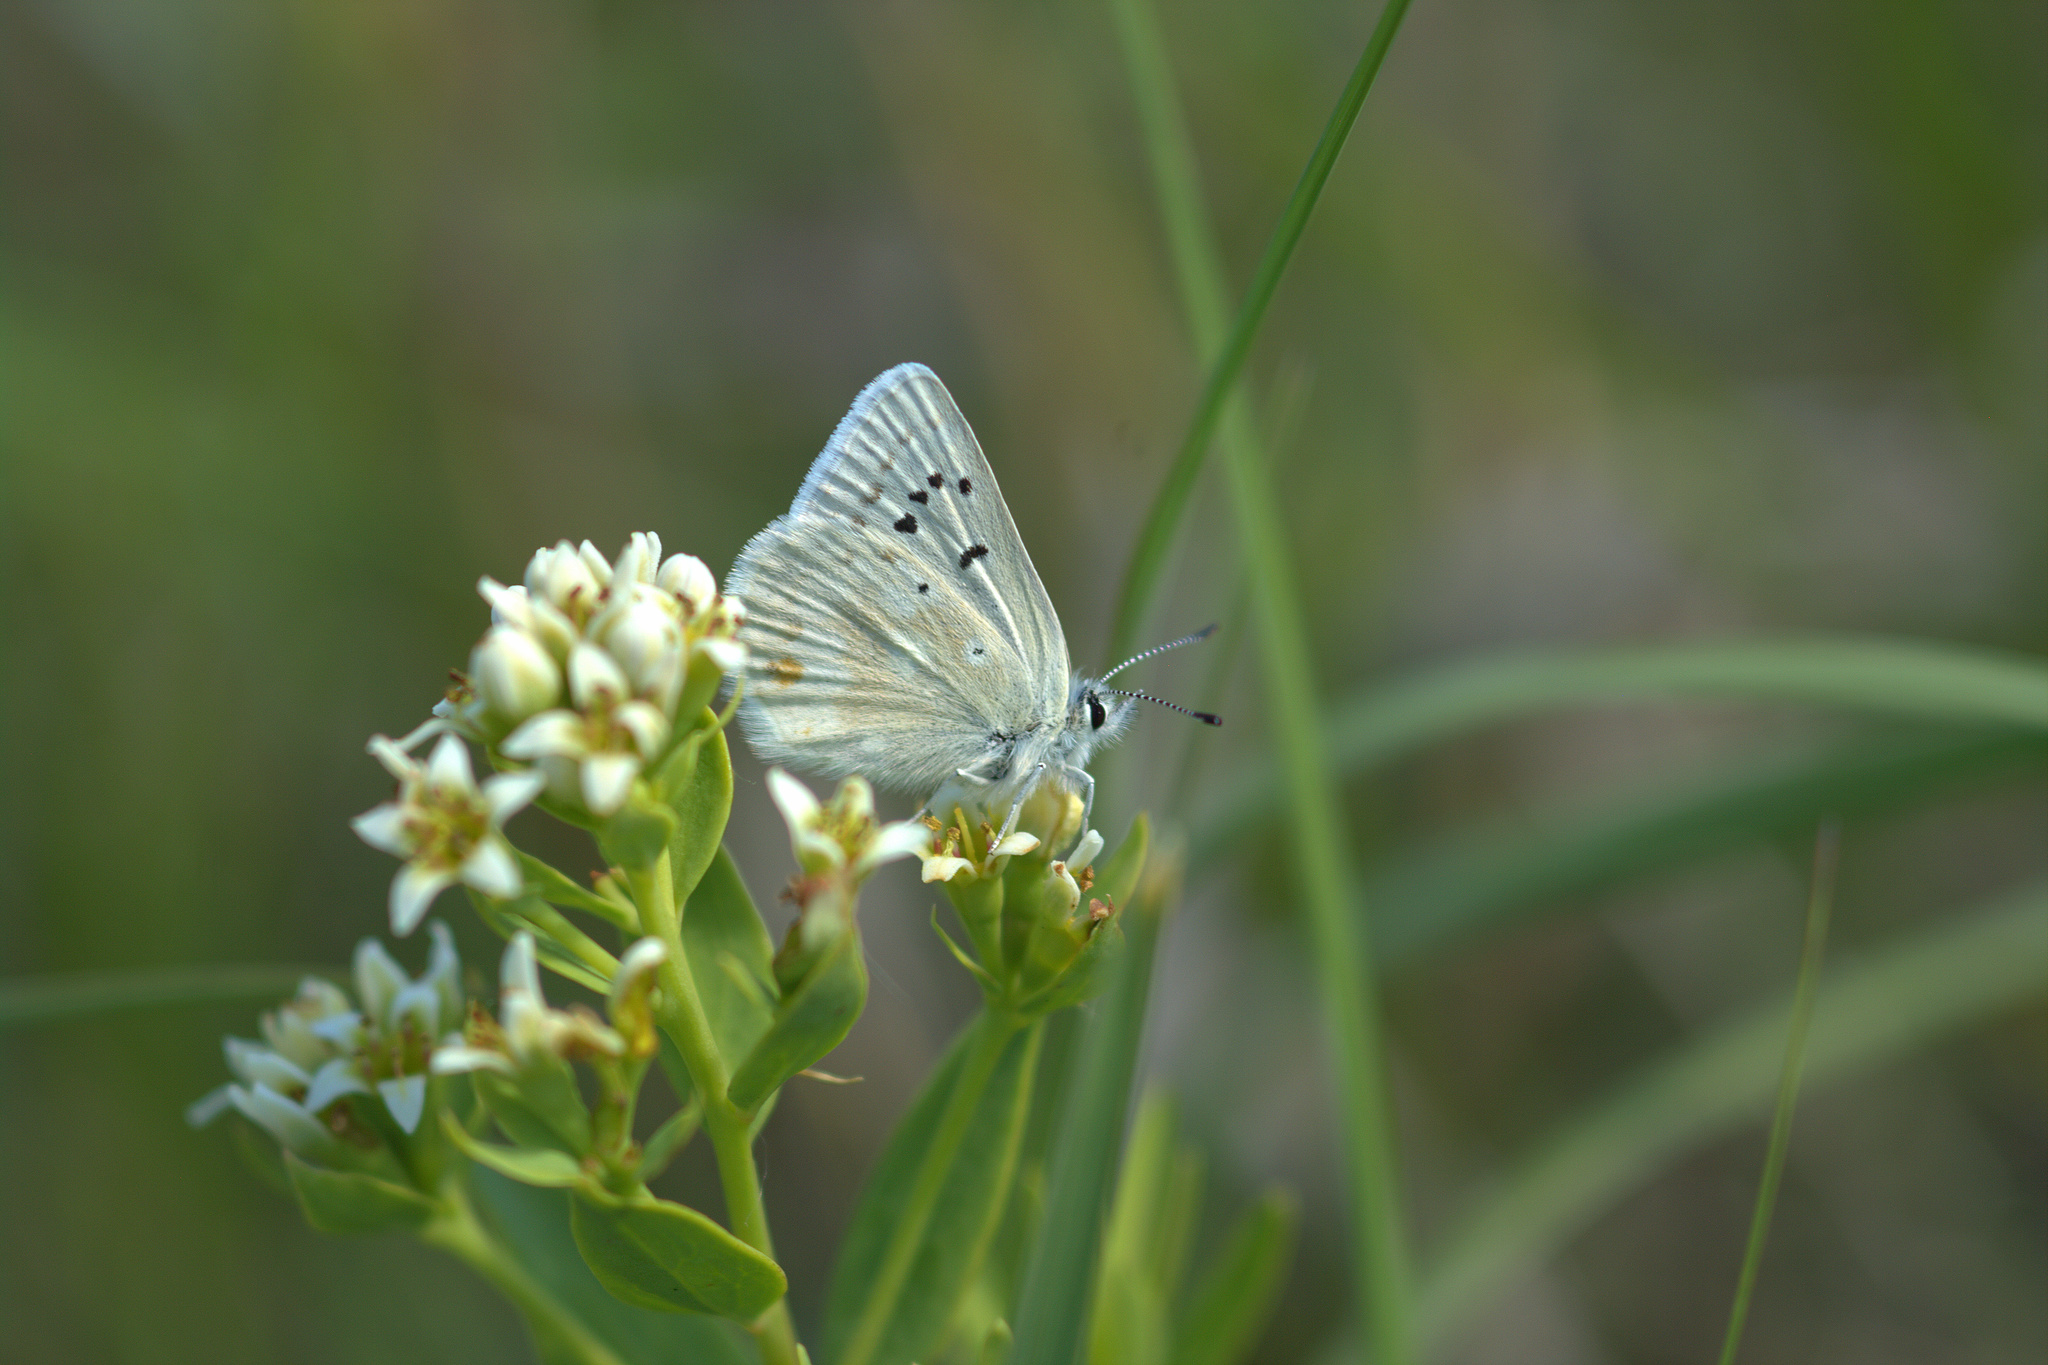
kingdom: Animalia
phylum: Arthropoda
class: Insecta
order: Lepidoptera
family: Lycaenidae
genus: Agriades
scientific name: Agriades glandon
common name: Glandon blue
